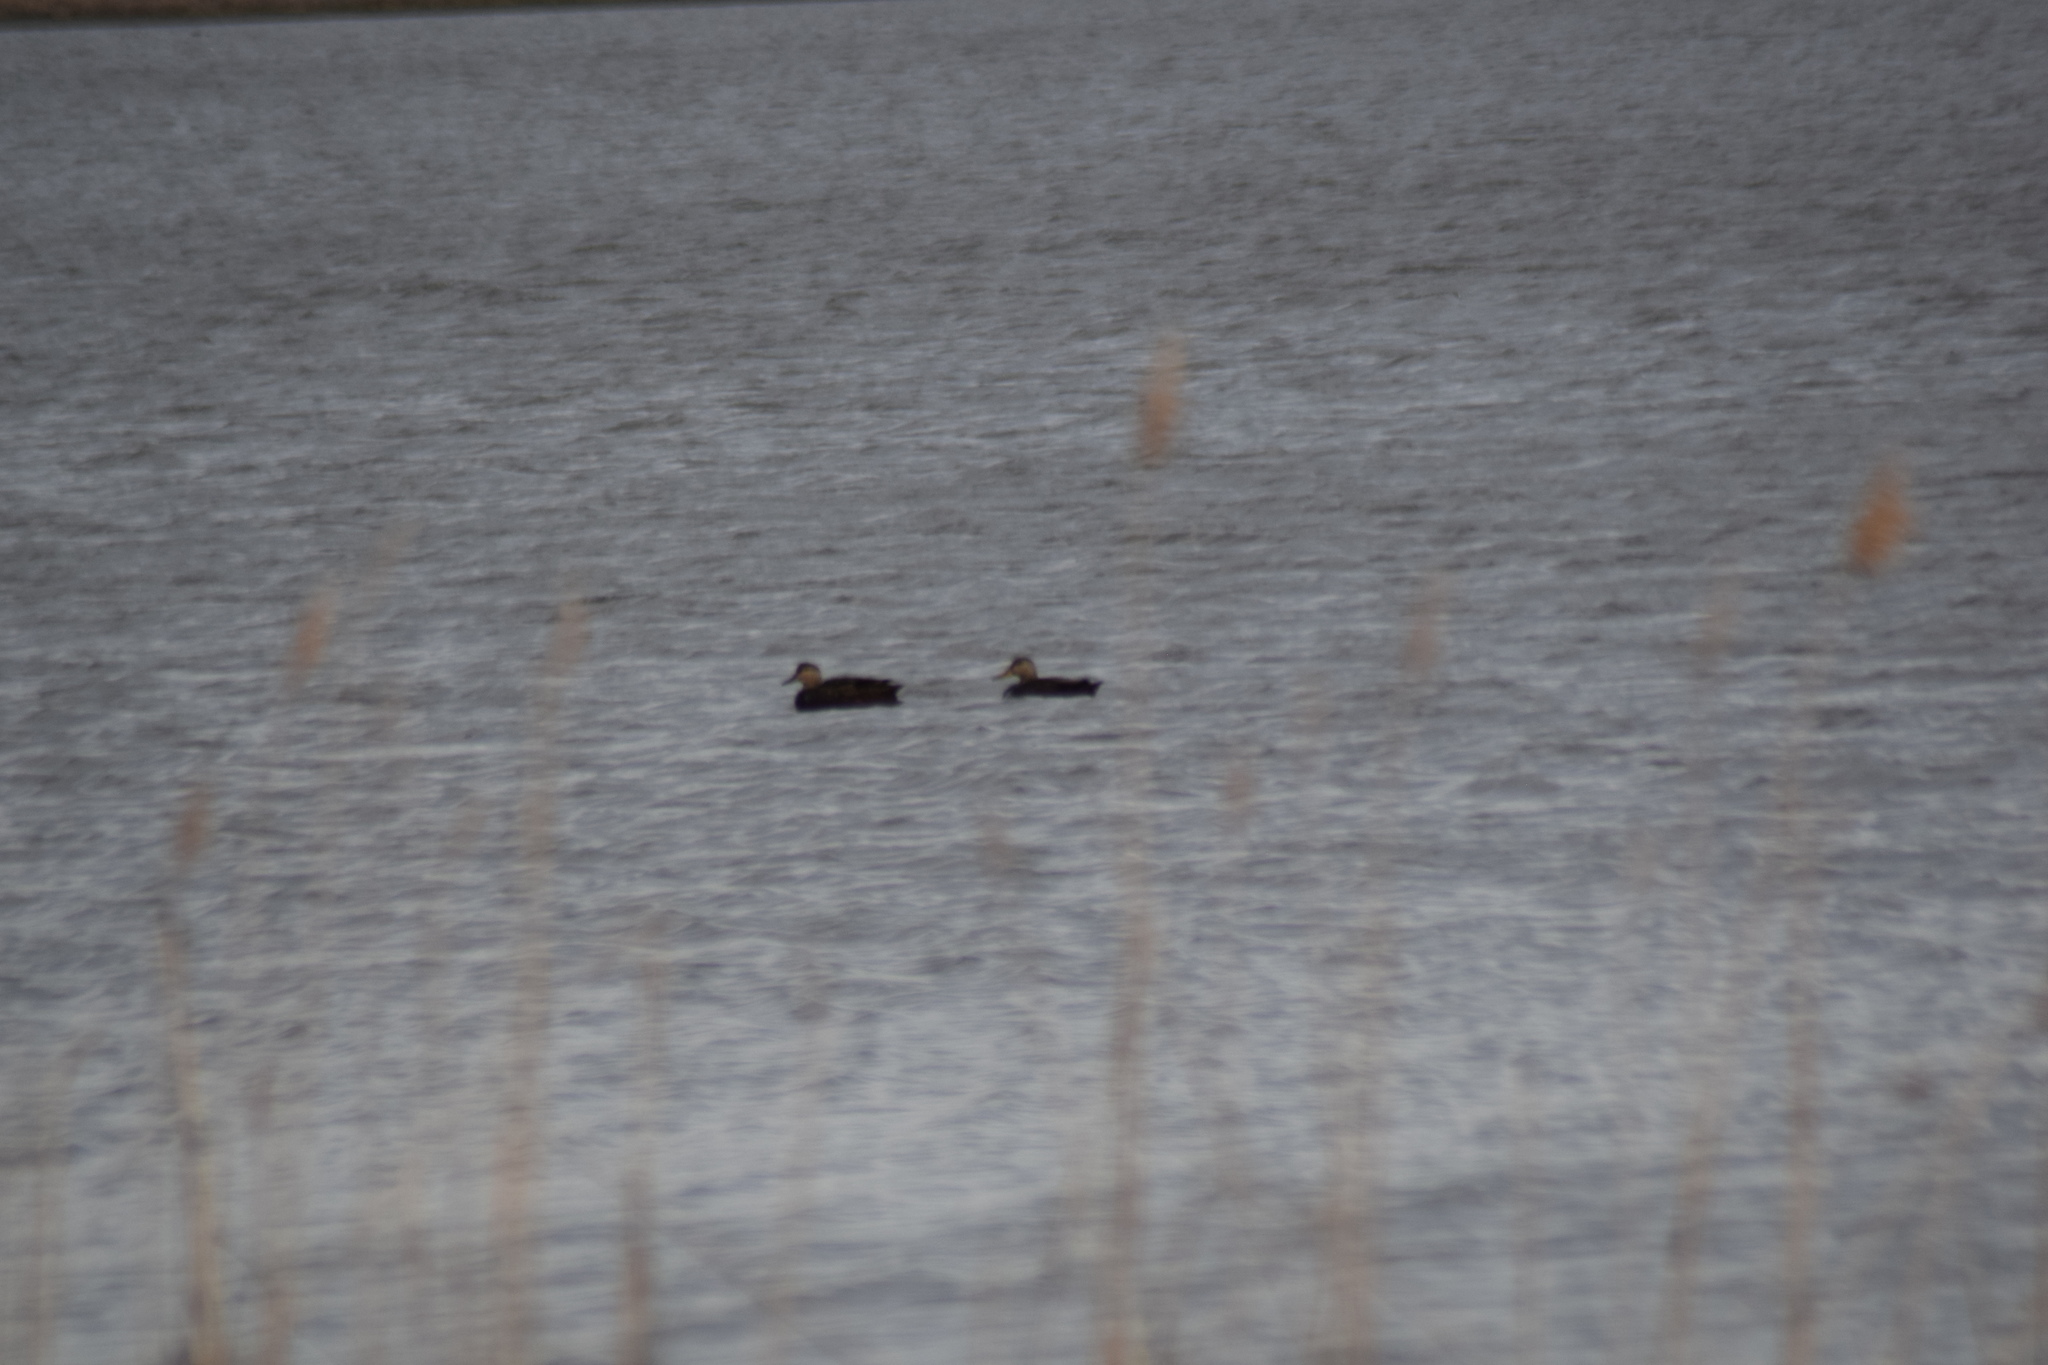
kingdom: Animalia
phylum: Chordata
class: Aves
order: Anseriformes
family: Anatidae
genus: Anas
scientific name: Anas rubripes
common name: American black duck
